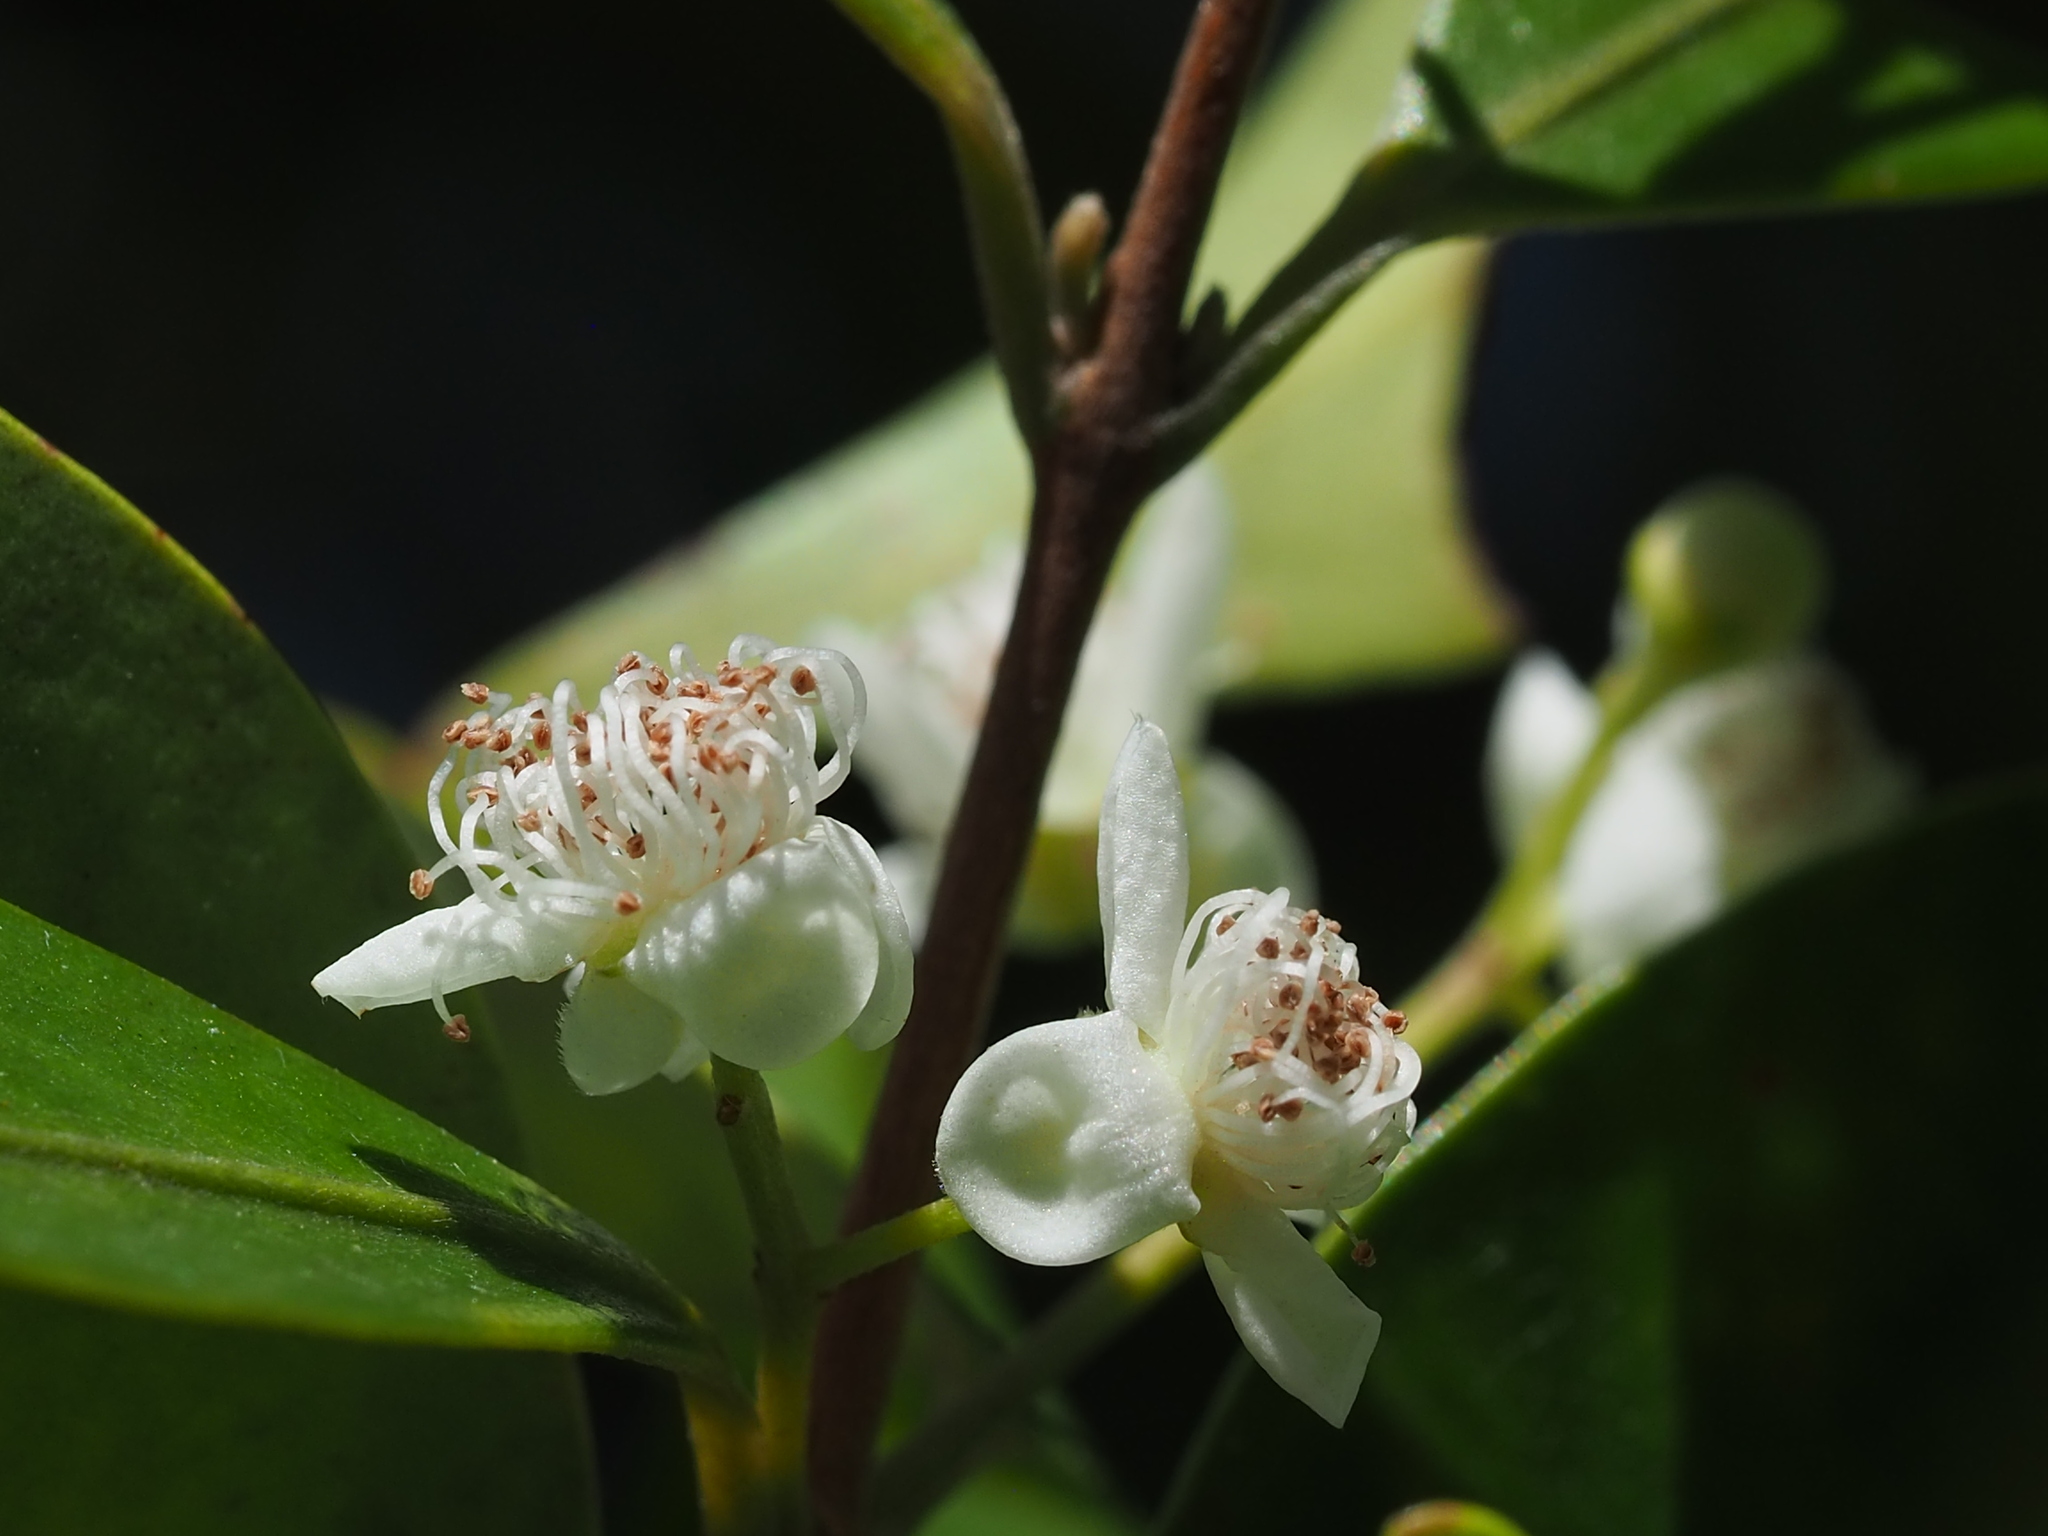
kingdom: Plantae
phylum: Tracheophyta
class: Magnoliopsida
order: Myrtales
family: Myrtaceae
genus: Decaspermum
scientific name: Decaspermum gracilentum
